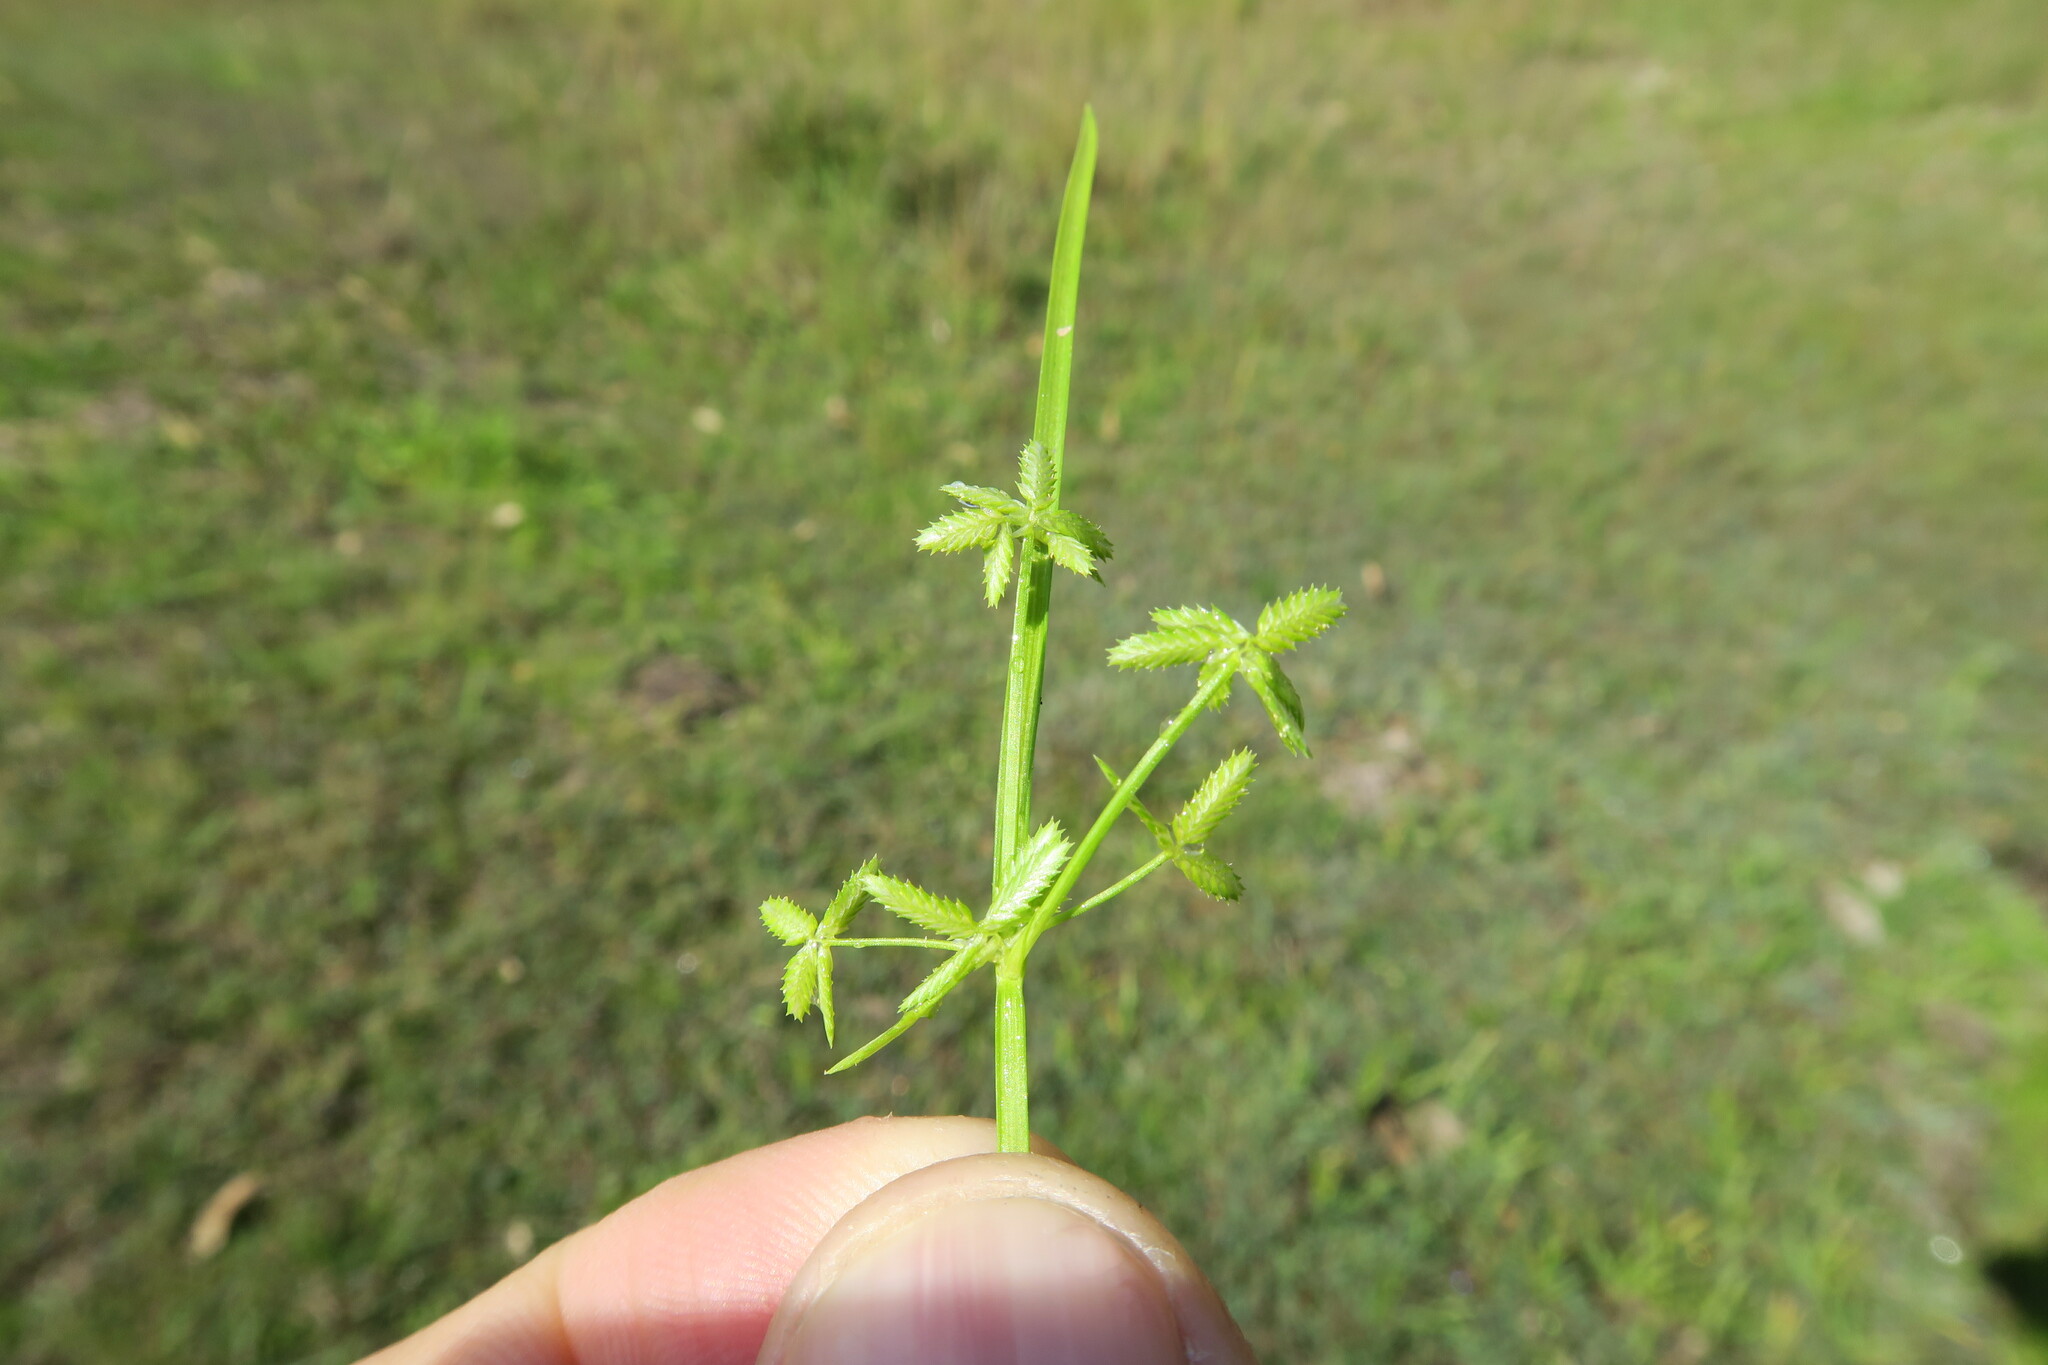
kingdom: Plantae
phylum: Tracheophyta
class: Liliopsida
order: Poales
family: Cyperaceae
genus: Cyperus
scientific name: Cyperus flaccidus
